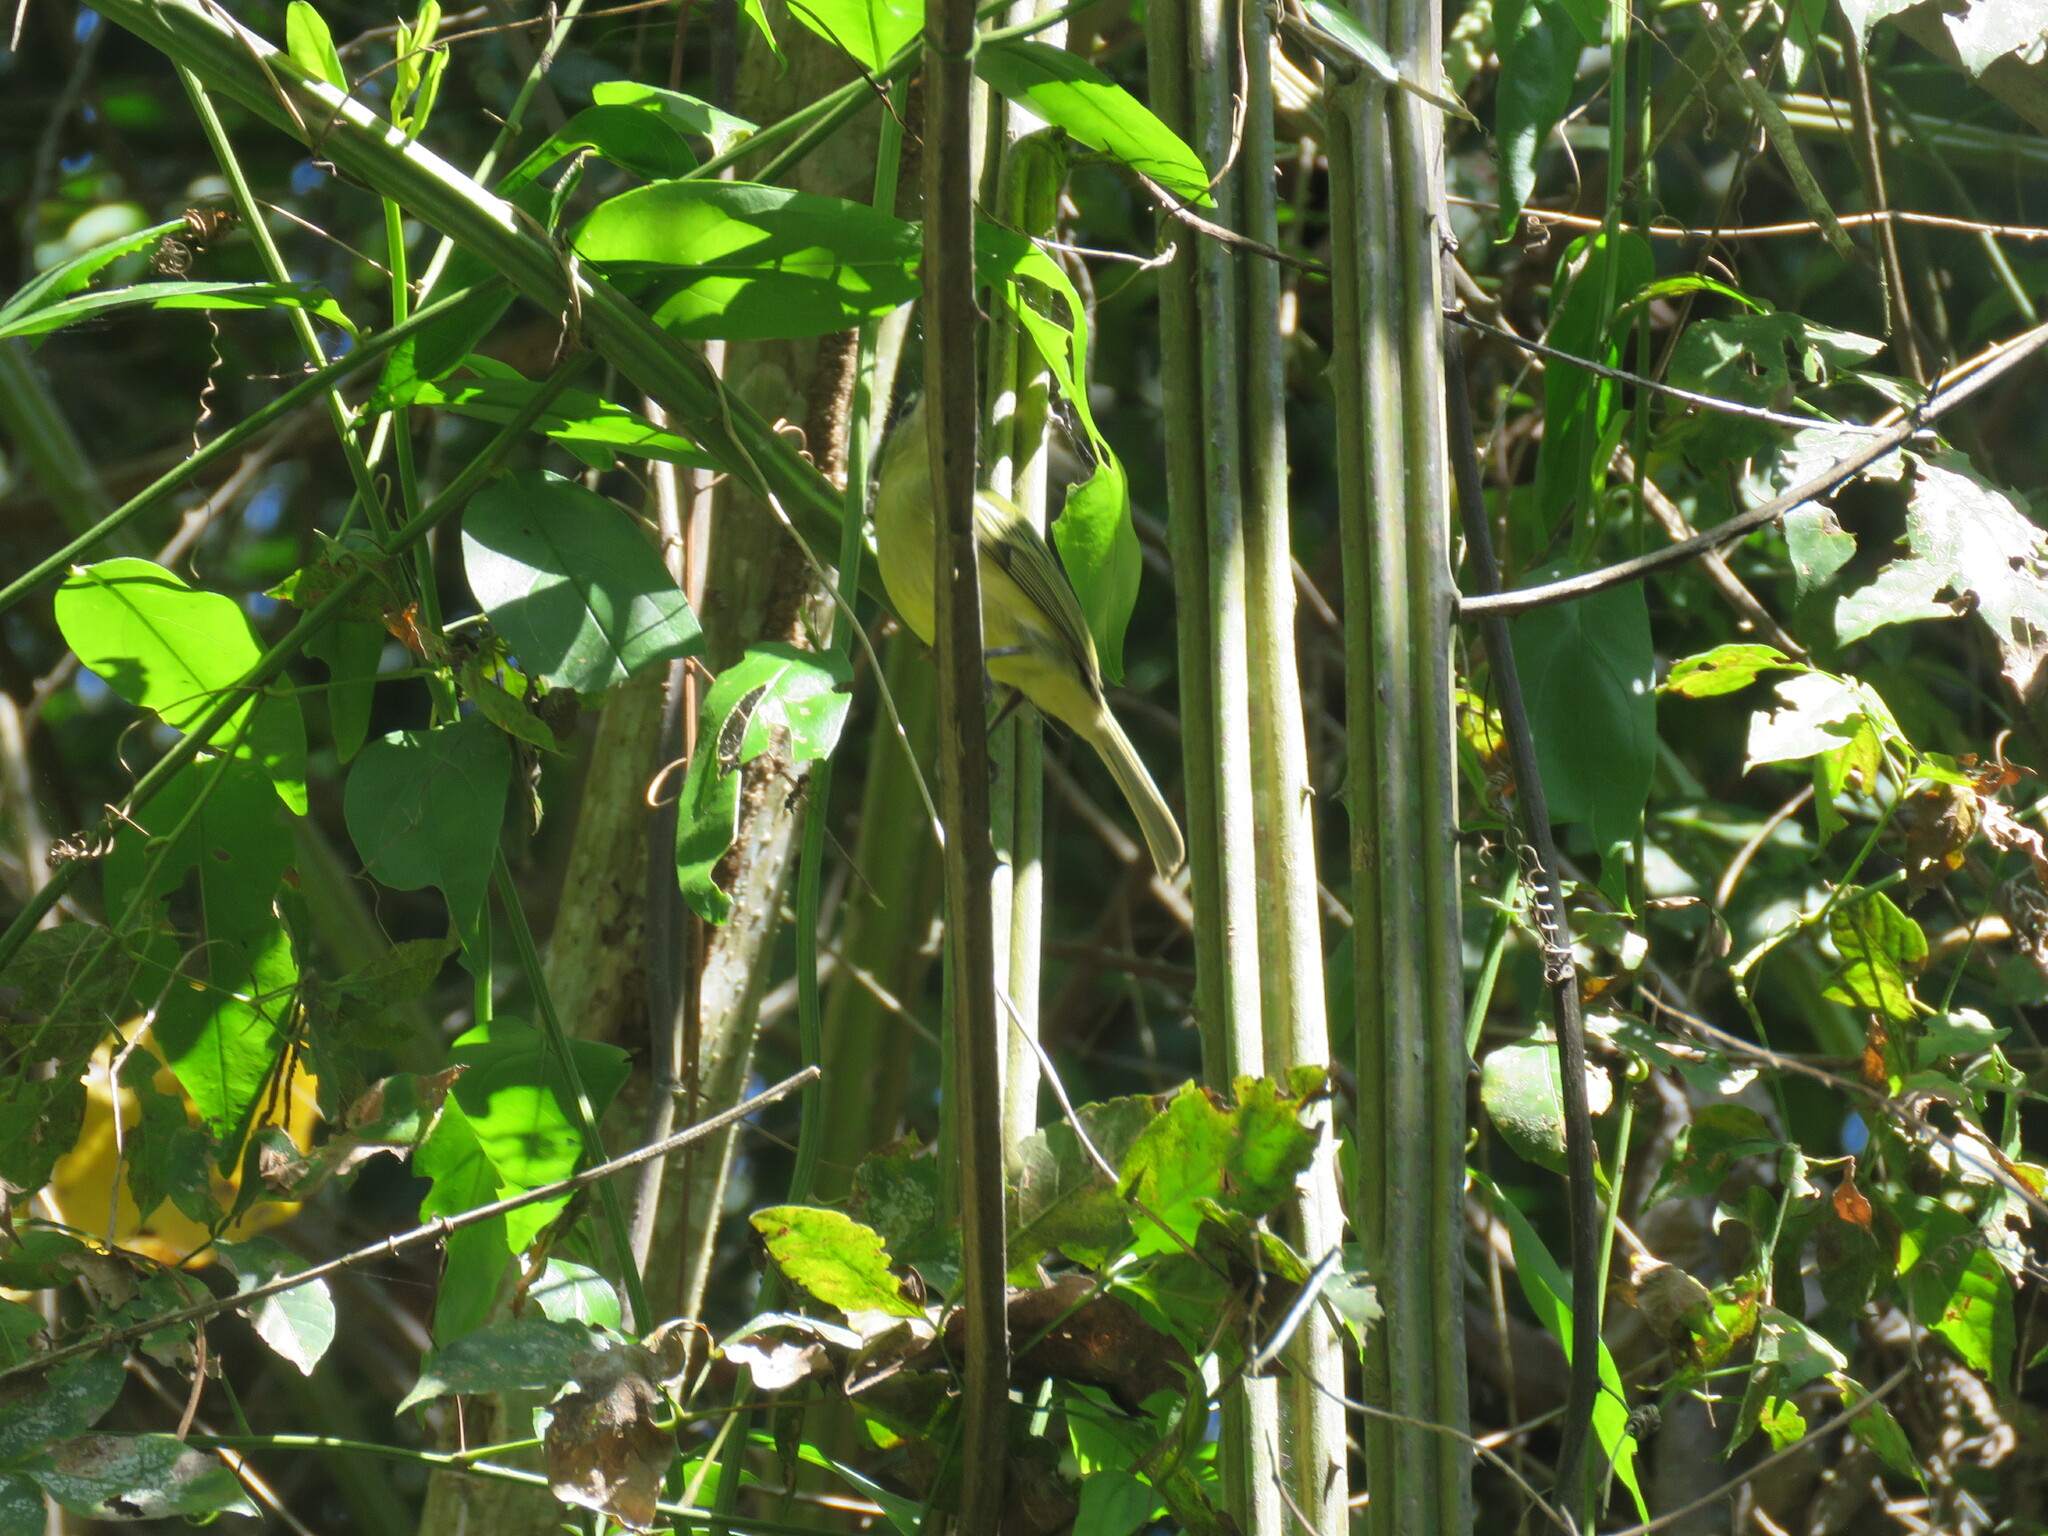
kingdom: Animalia
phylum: Chordata
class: Aves
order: Passeriformes
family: Tyrannidae
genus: Tolmomyias
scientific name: Tolmomyias sulphurescens
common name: Yellow-olive flycatcher
